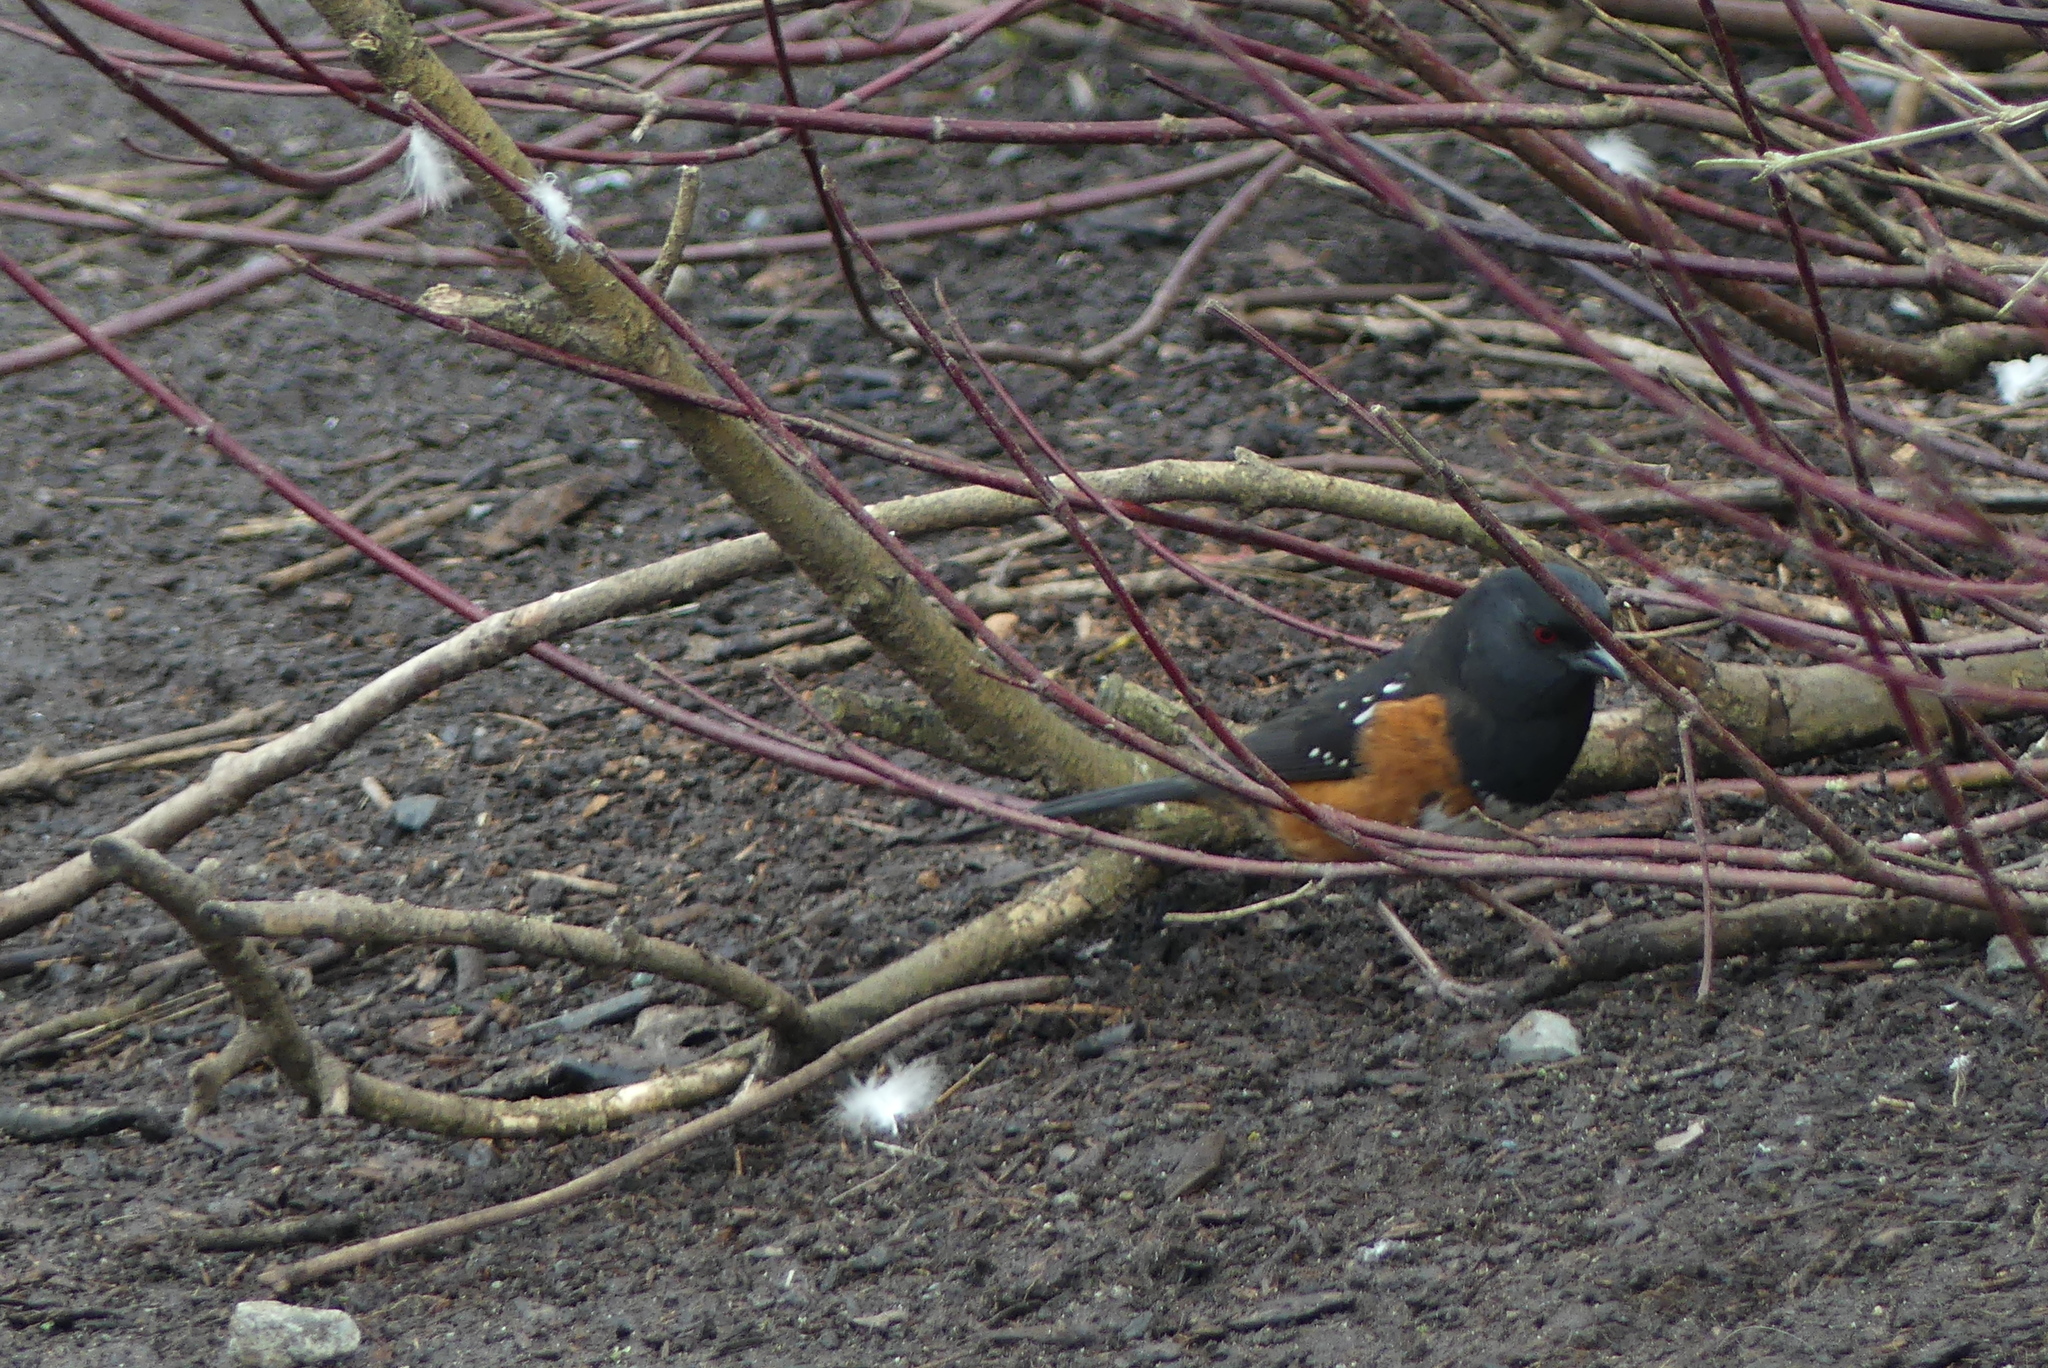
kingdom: Animalia
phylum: Chordata
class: Aves
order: Passeriformes
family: Passerellidae
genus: Pipilo
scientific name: Pipilo maculatus
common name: Spotted towhee
